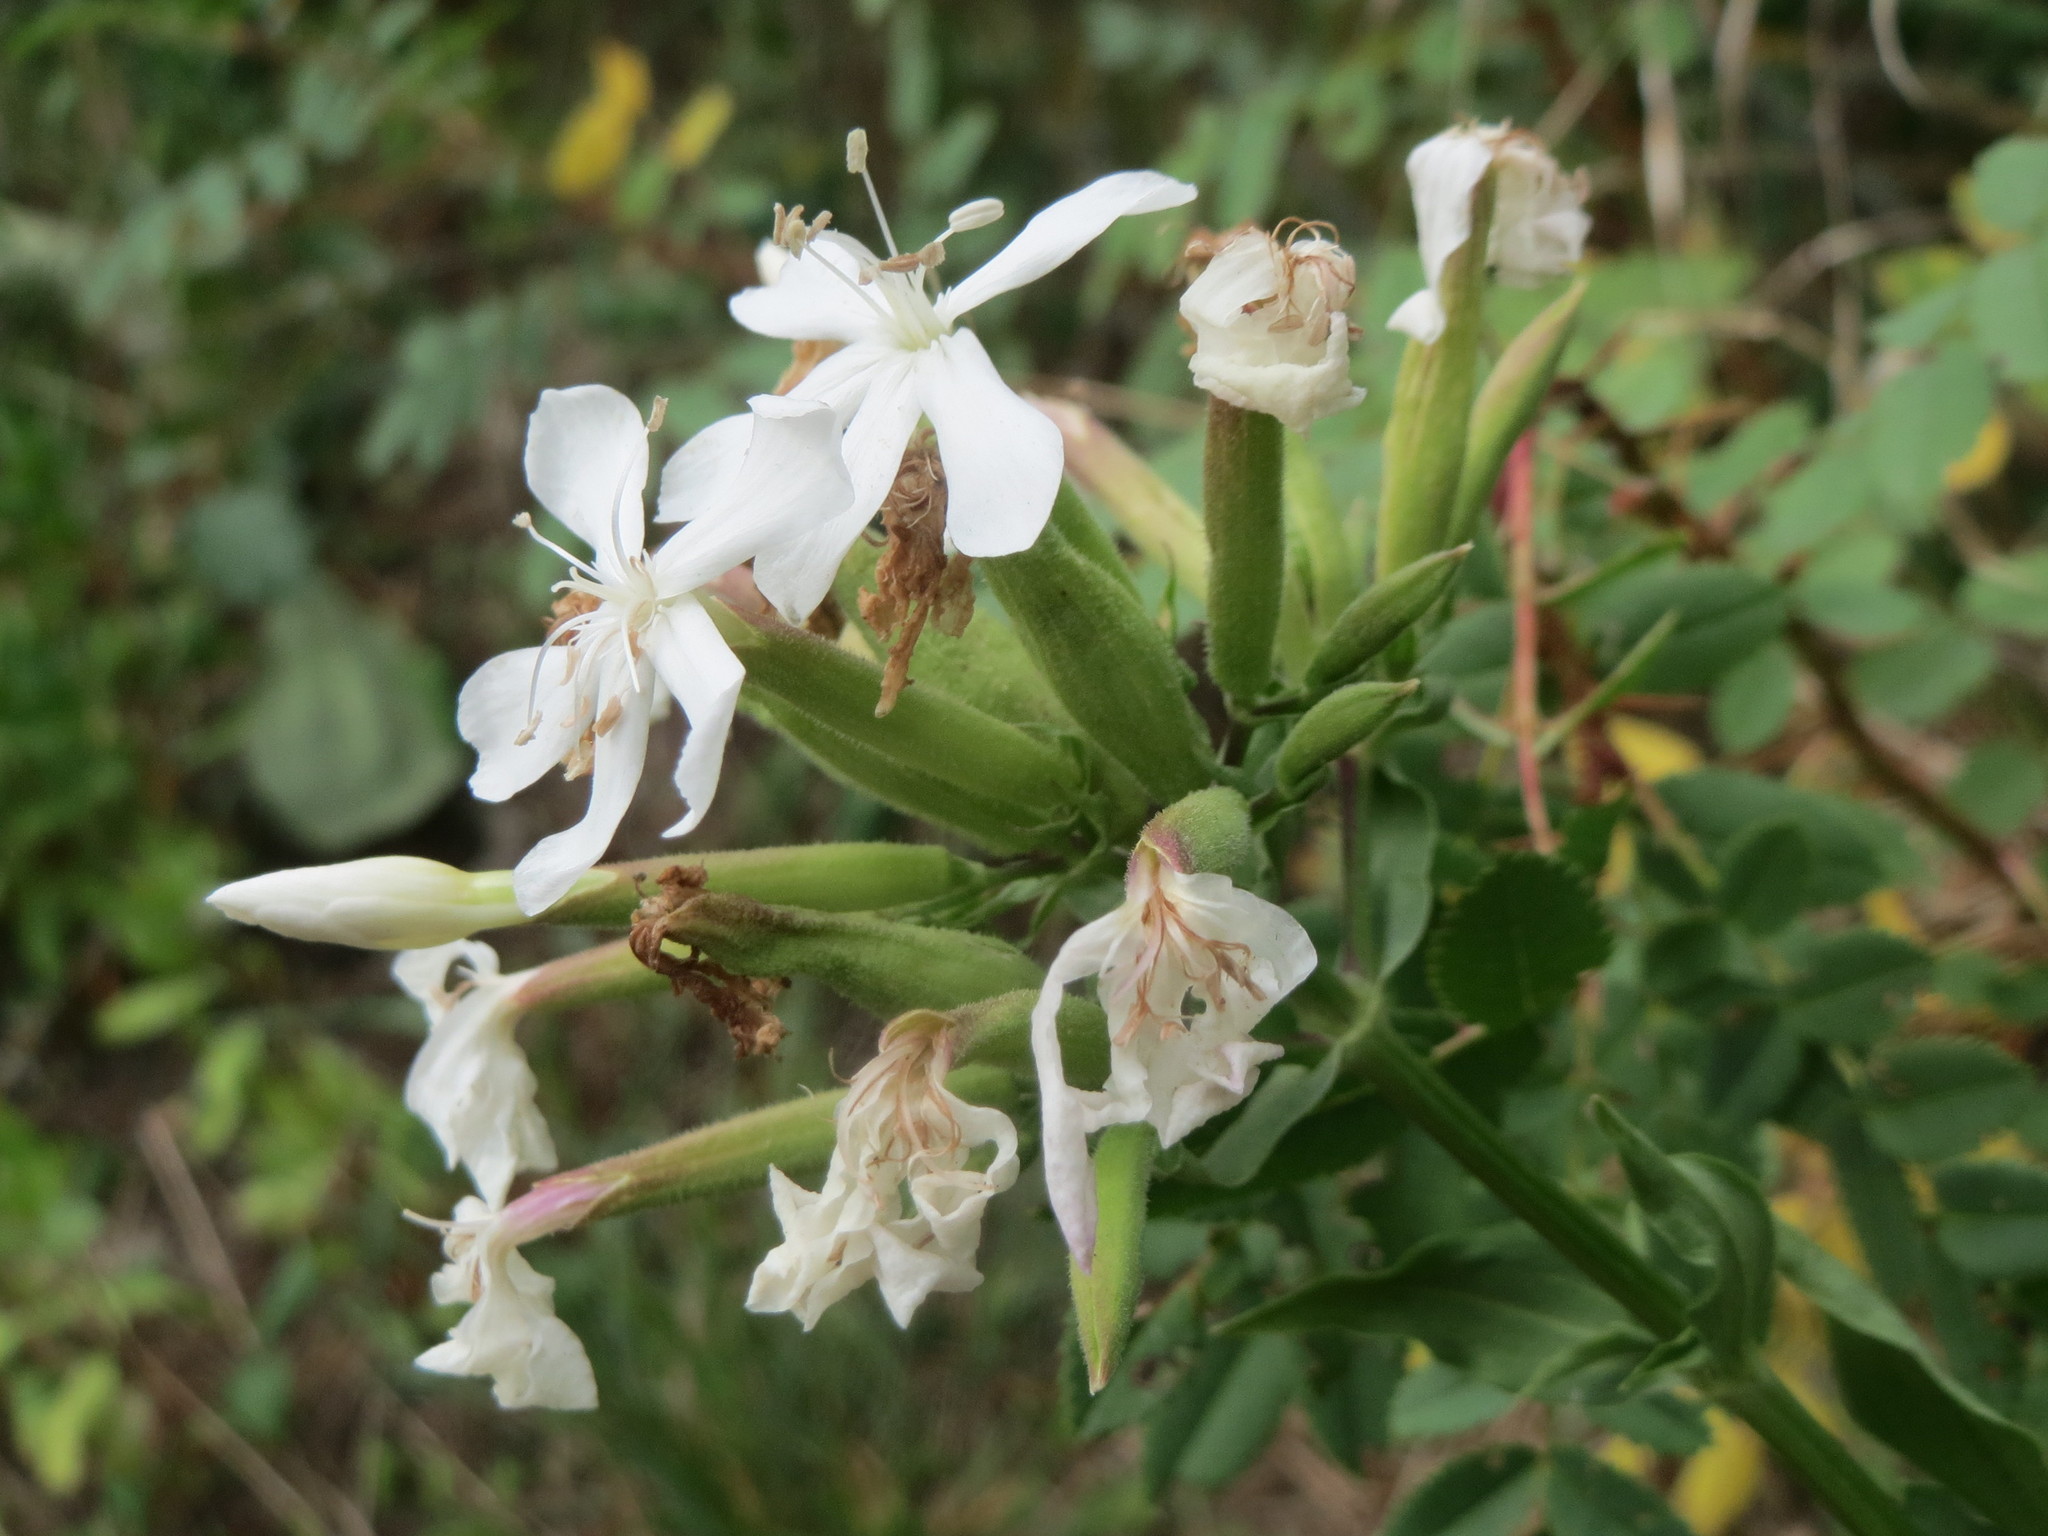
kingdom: Plantae
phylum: Tracheophyta
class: Magnoliopsida
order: Caryophyllales
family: Caryophyllaceae
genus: Saponaria
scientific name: Saponaria officinalis
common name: Soapwort
